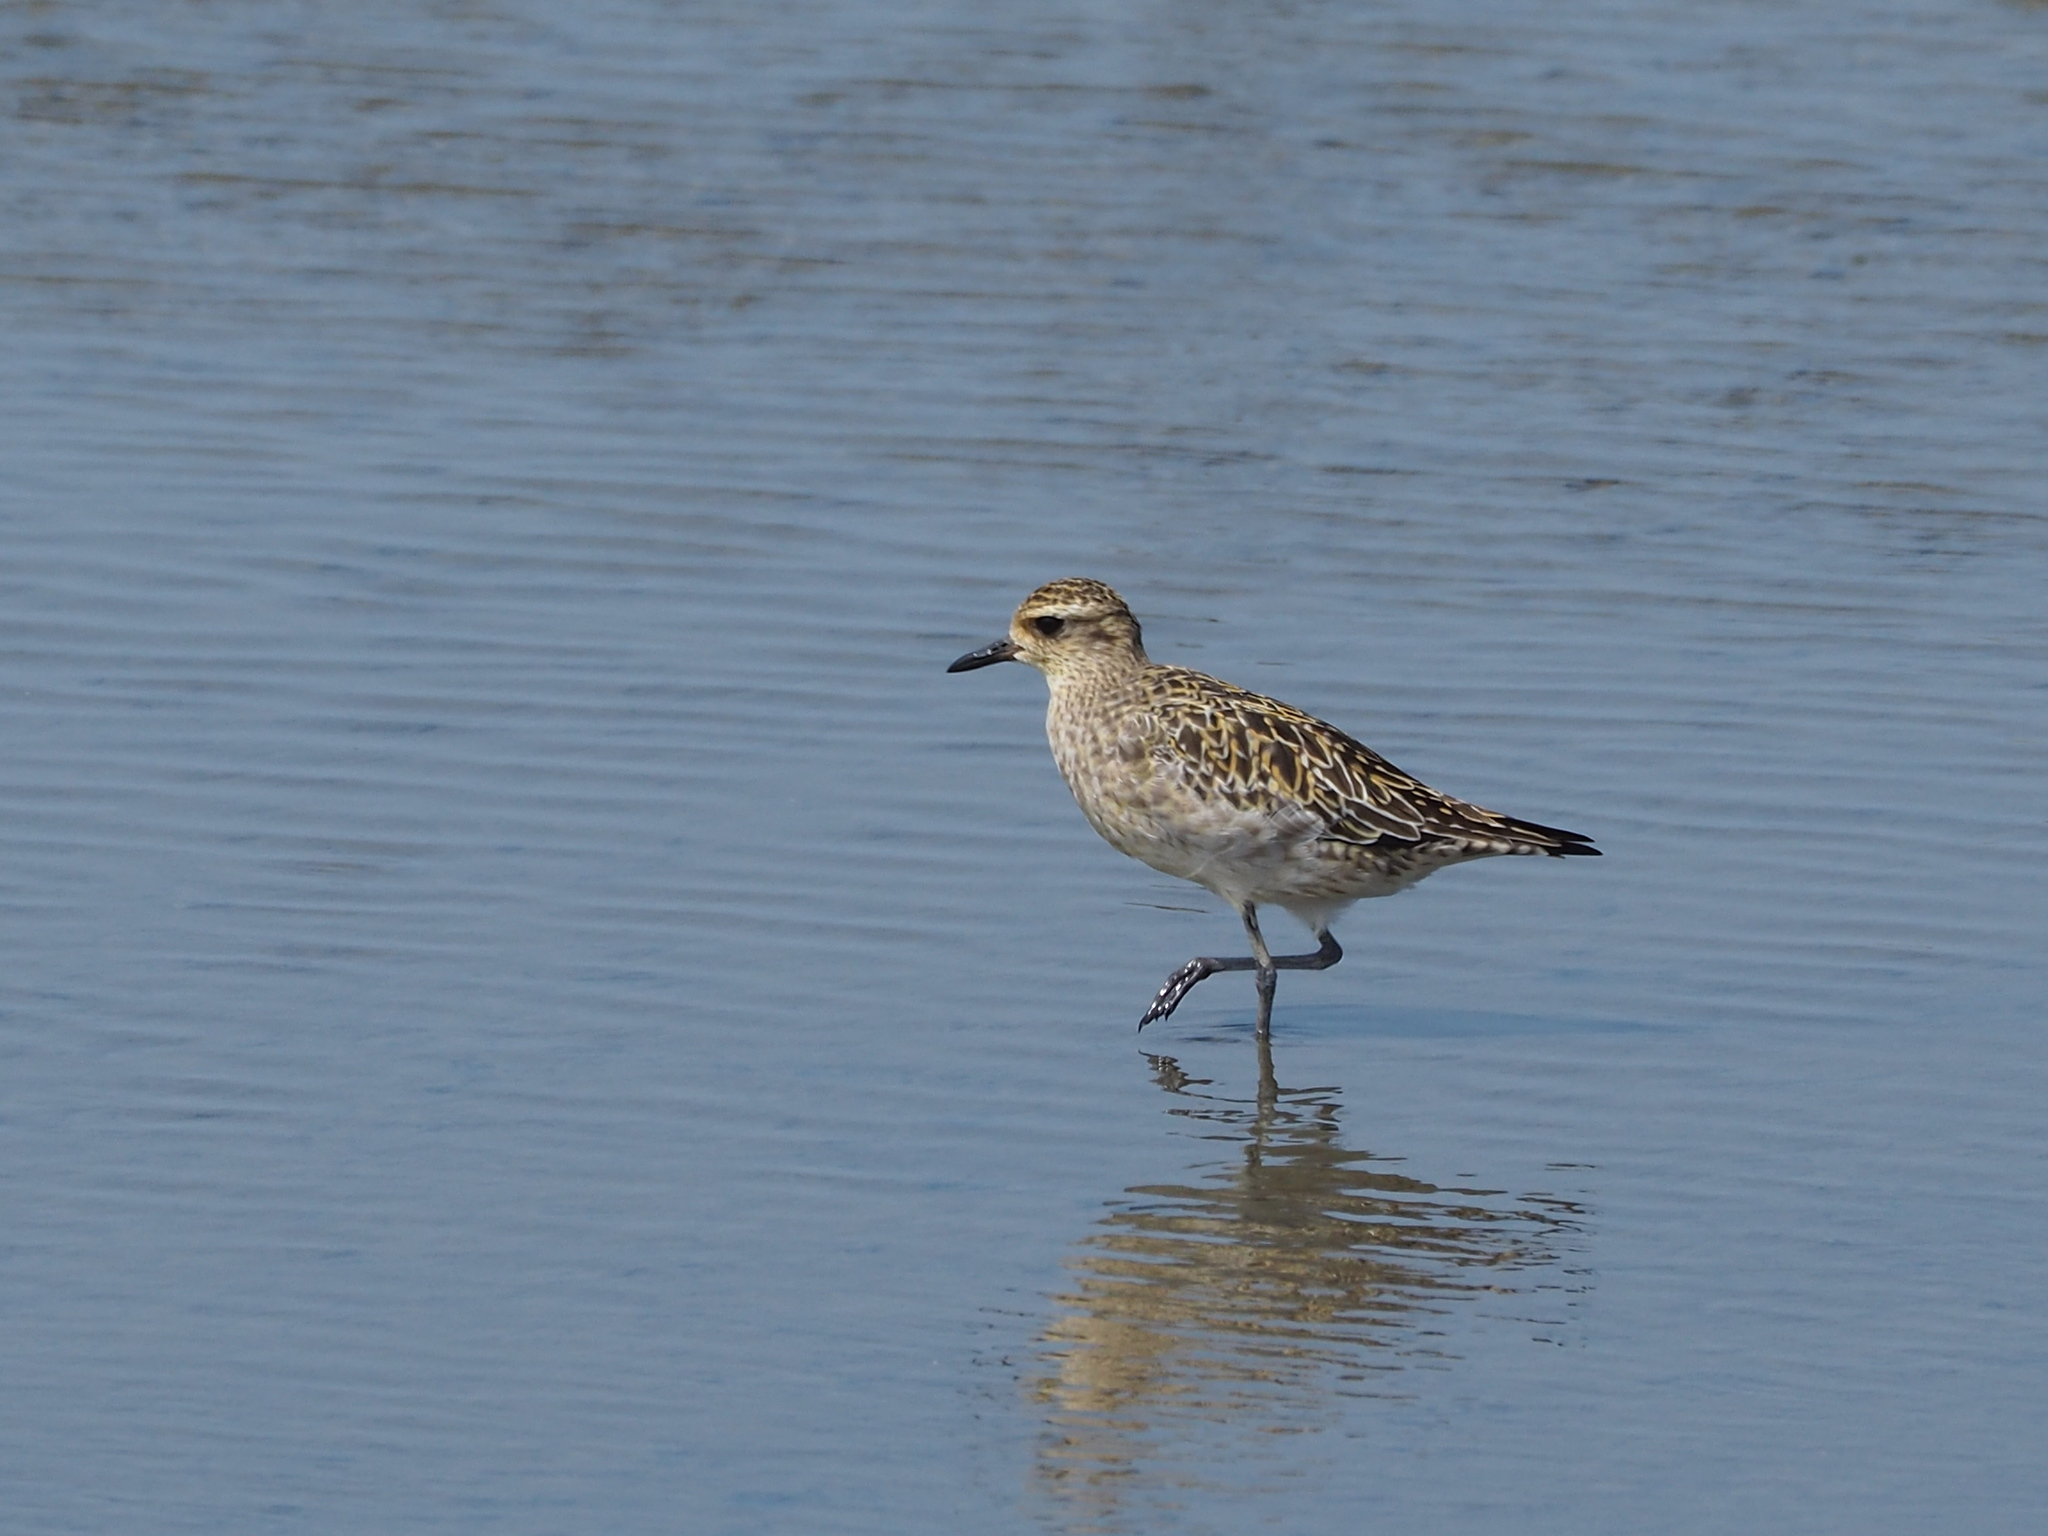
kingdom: Animalia
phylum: Chordata
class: Aves
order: Charadriiformes
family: Charadriidae
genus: Pluvialis
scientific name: Pluvialis fulva
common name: Pacific golden plover
